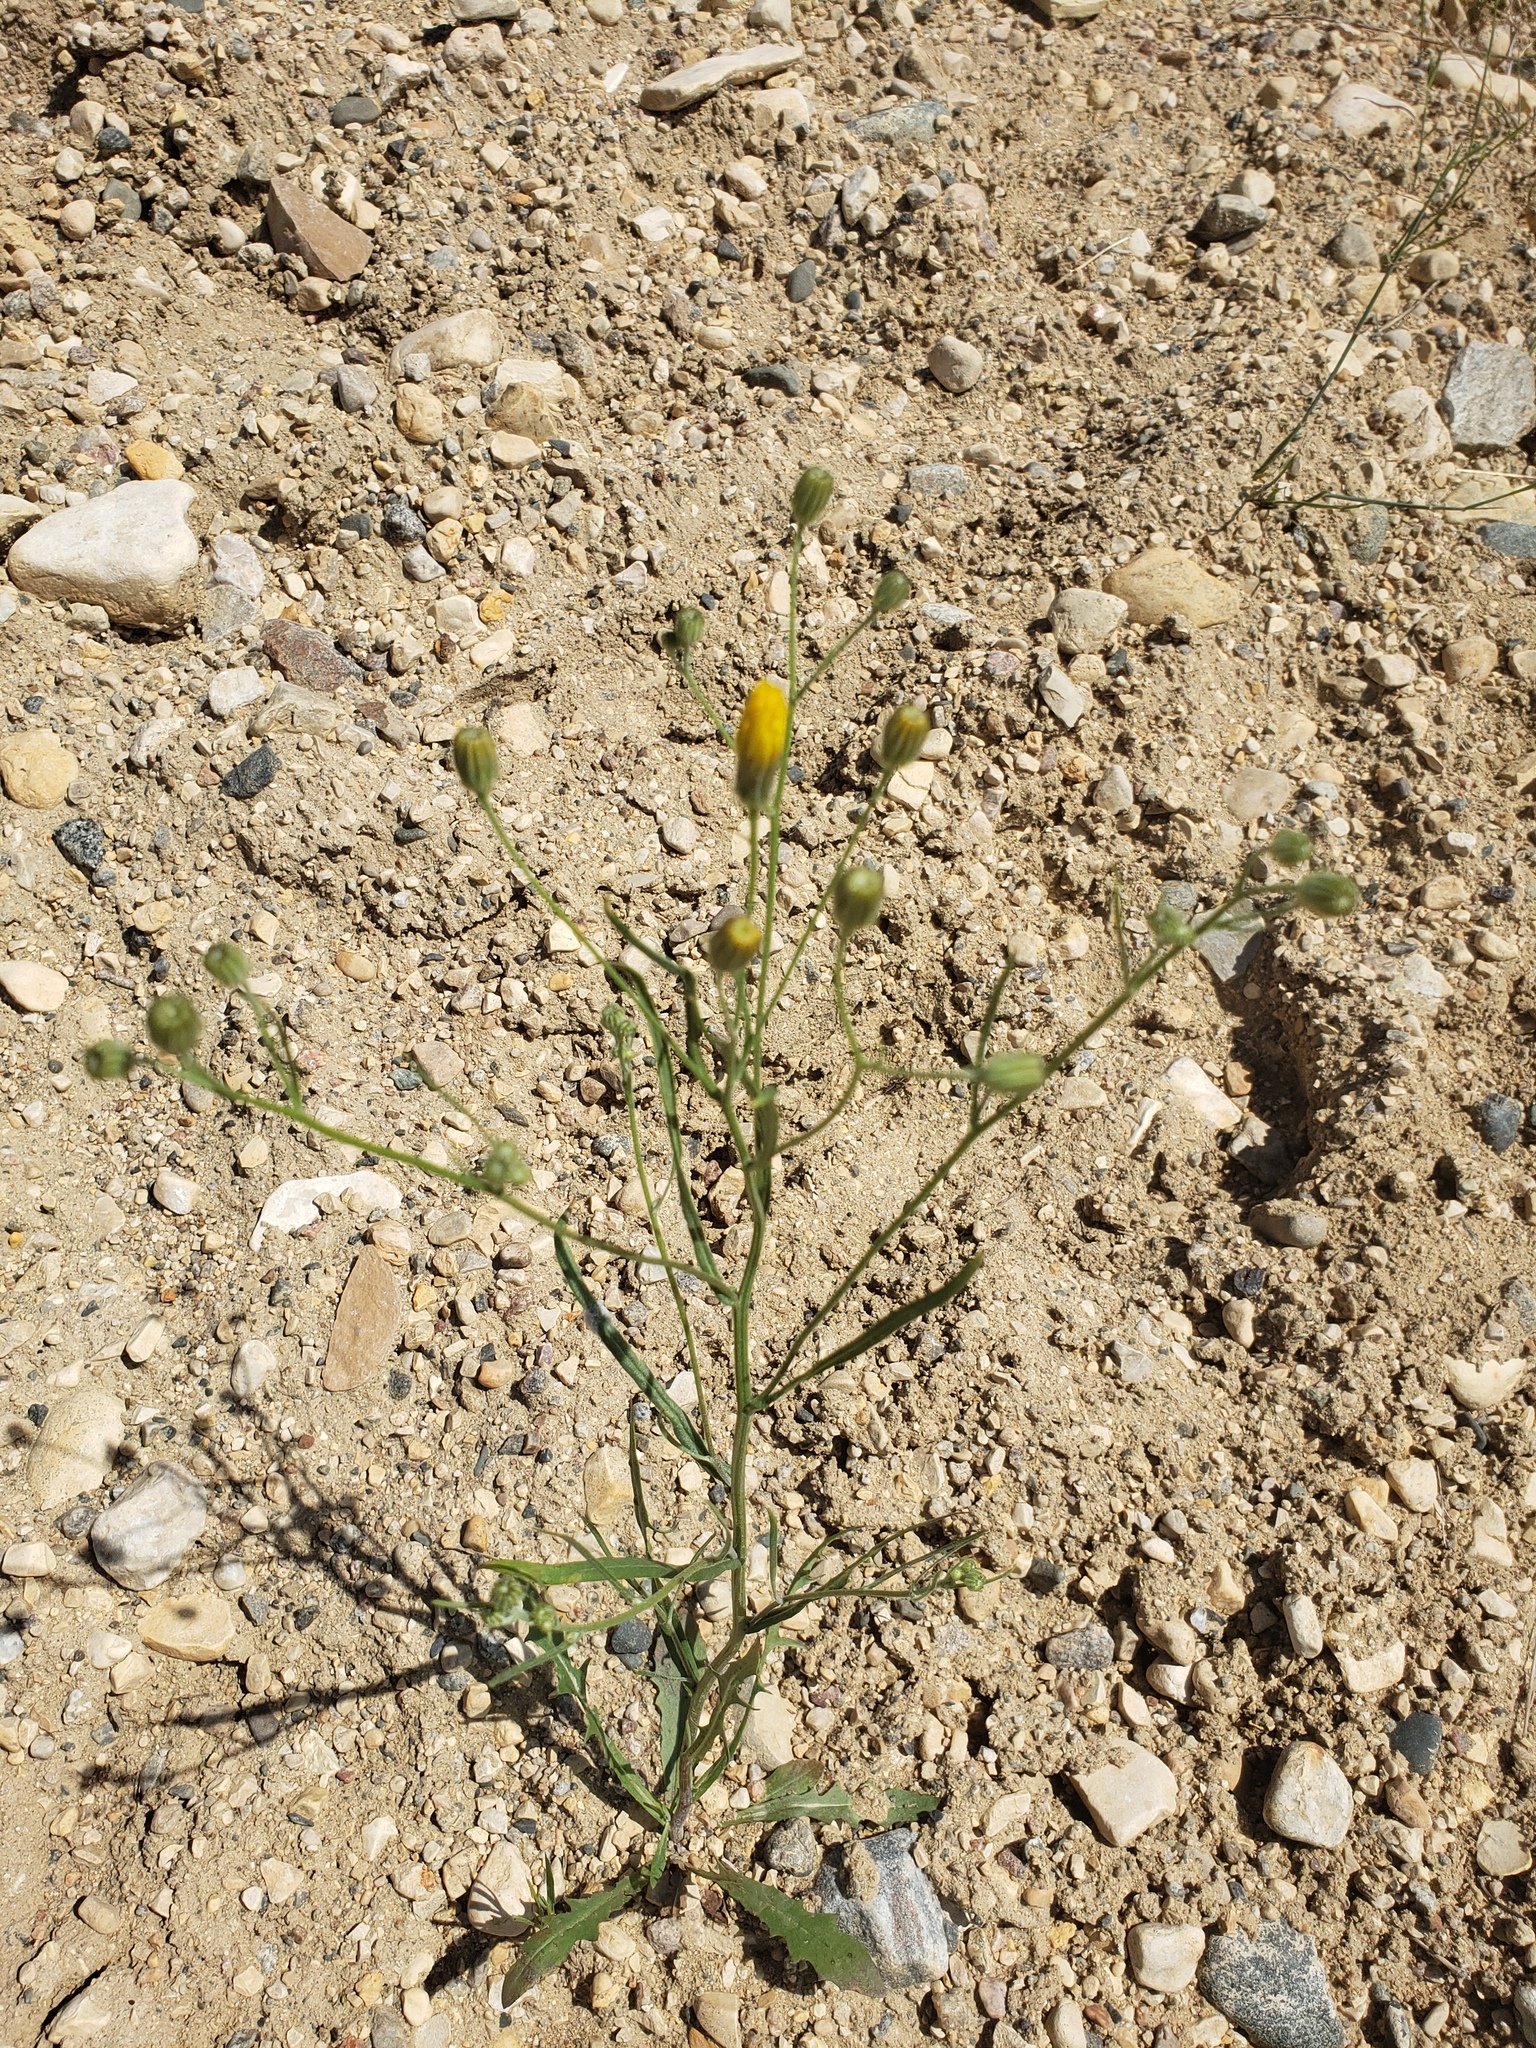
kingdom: Plantae
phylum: Tracheophyta
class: Magnoliopsida
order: Asterales
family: Asteraceae
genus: Crepis
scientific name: Crepis tectorum
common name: Narrow-leaved hawk's-beard
